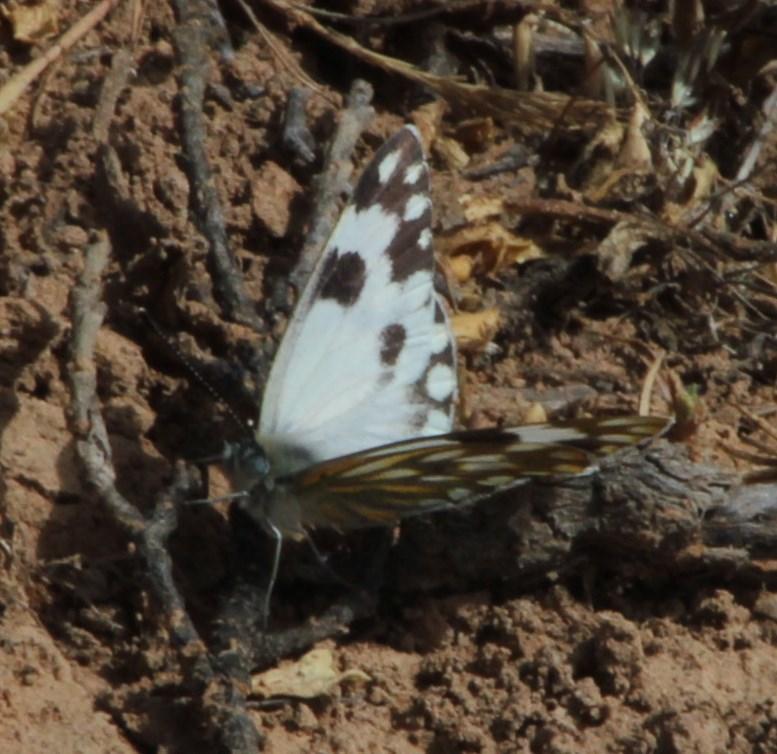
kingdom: Animalia
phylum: Arthropoda
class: Insecta
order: Lepidoptera
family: Pieridae
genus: Pontia
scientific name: Pontia helice
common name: Meadow white
